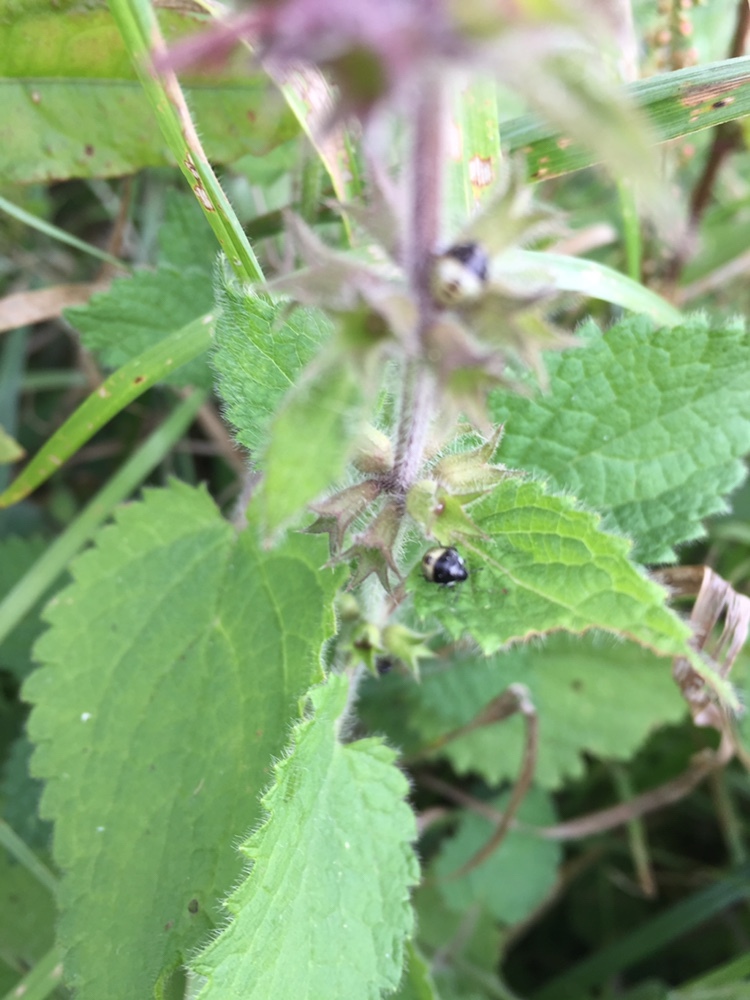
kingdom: Plantae
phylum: Tracheophyta
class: Magnoliopsida
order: Lamiales
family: Lamiaceae
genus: Stachys
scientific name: Stachys sylvatica
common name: Hedge woundwort
